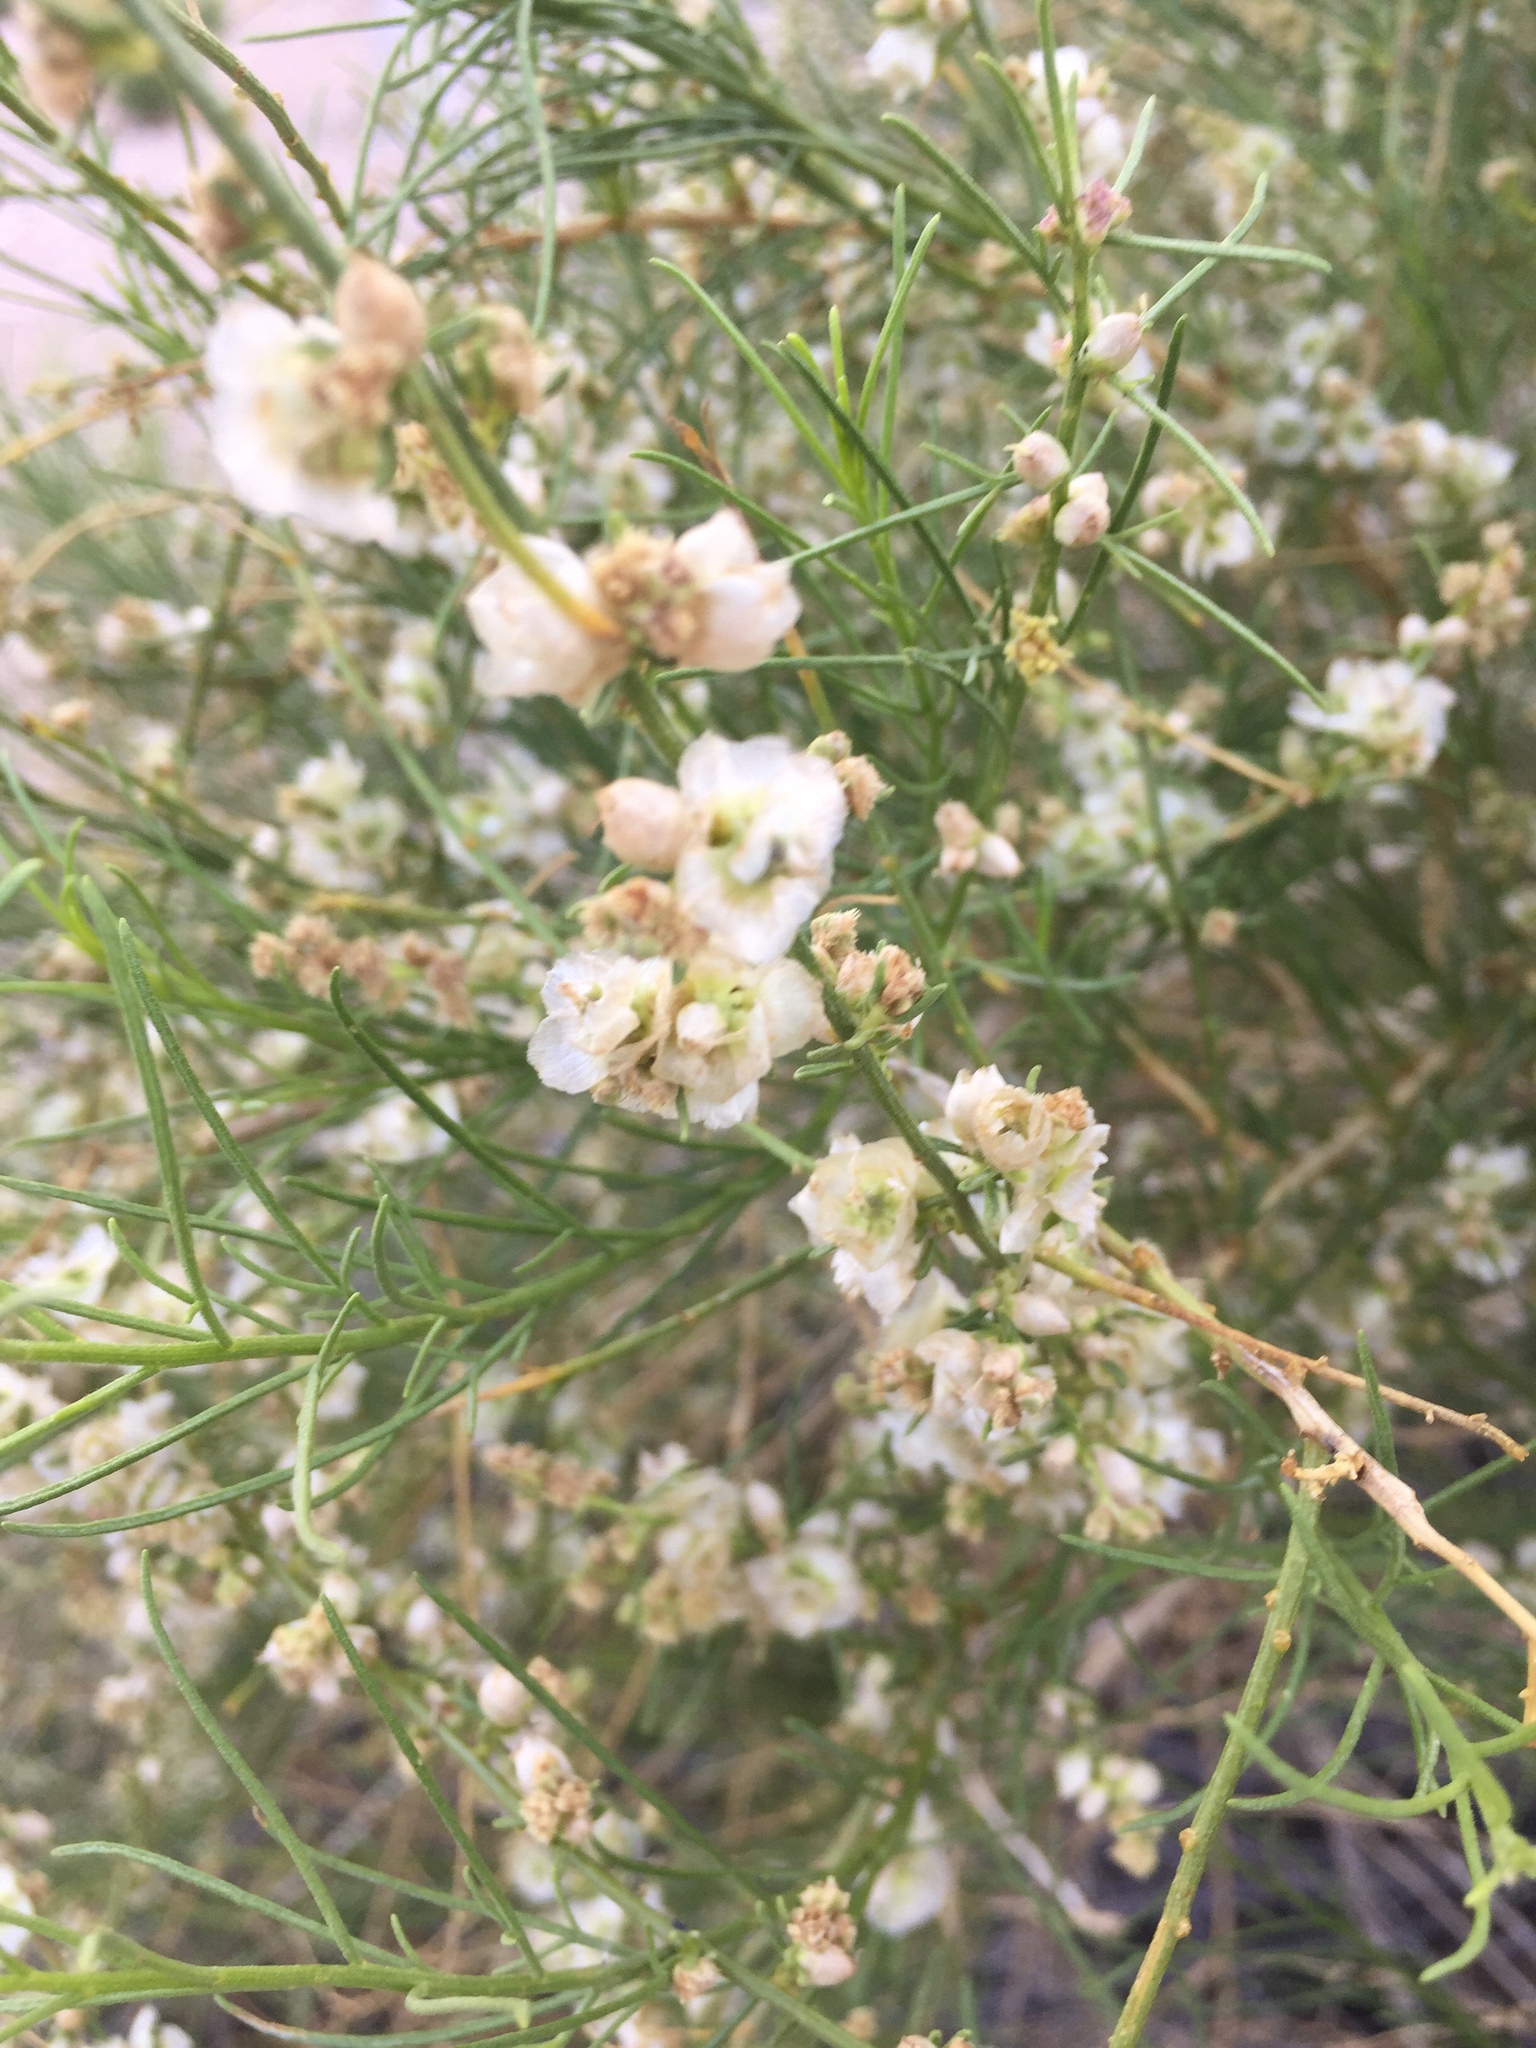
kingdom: Plantae
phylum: Tracheophyta
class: Magnoliopsida
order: Asterales
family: Asteraceae
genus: Ambrosia
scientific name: Ambrosia salsola
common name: Burrobrush
